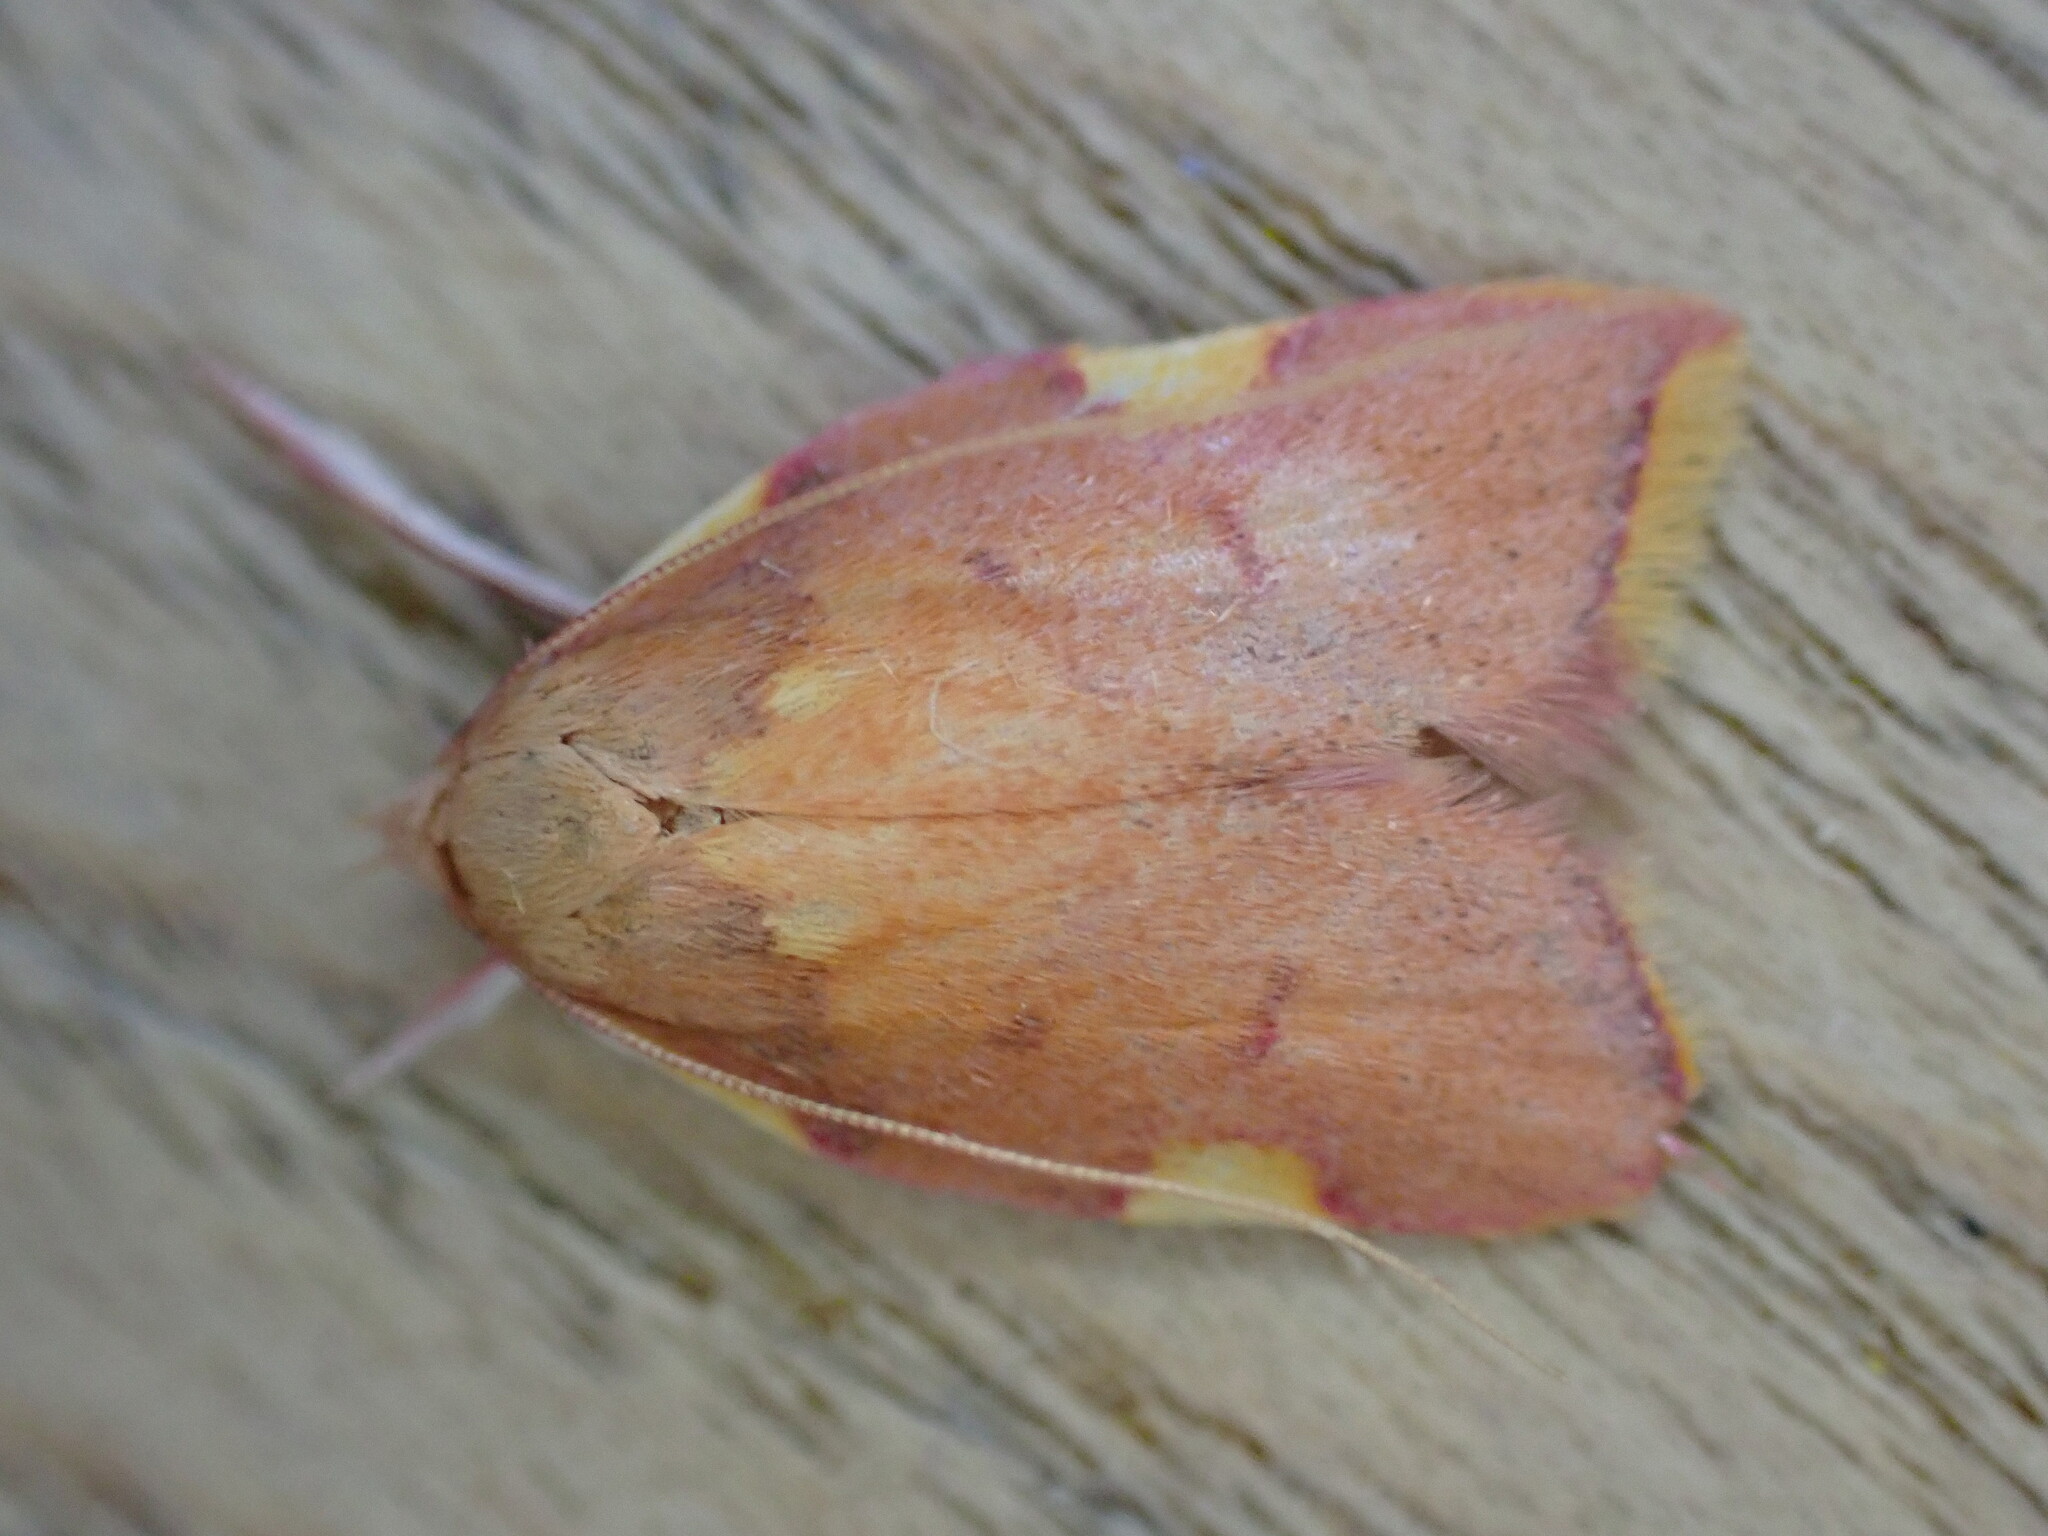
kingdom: Animalia
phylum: Arthropoda
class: Insecta
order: Lepidoptera
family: Peleopodidae
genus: Carcina
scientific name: Carcina quercana
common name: Moth
